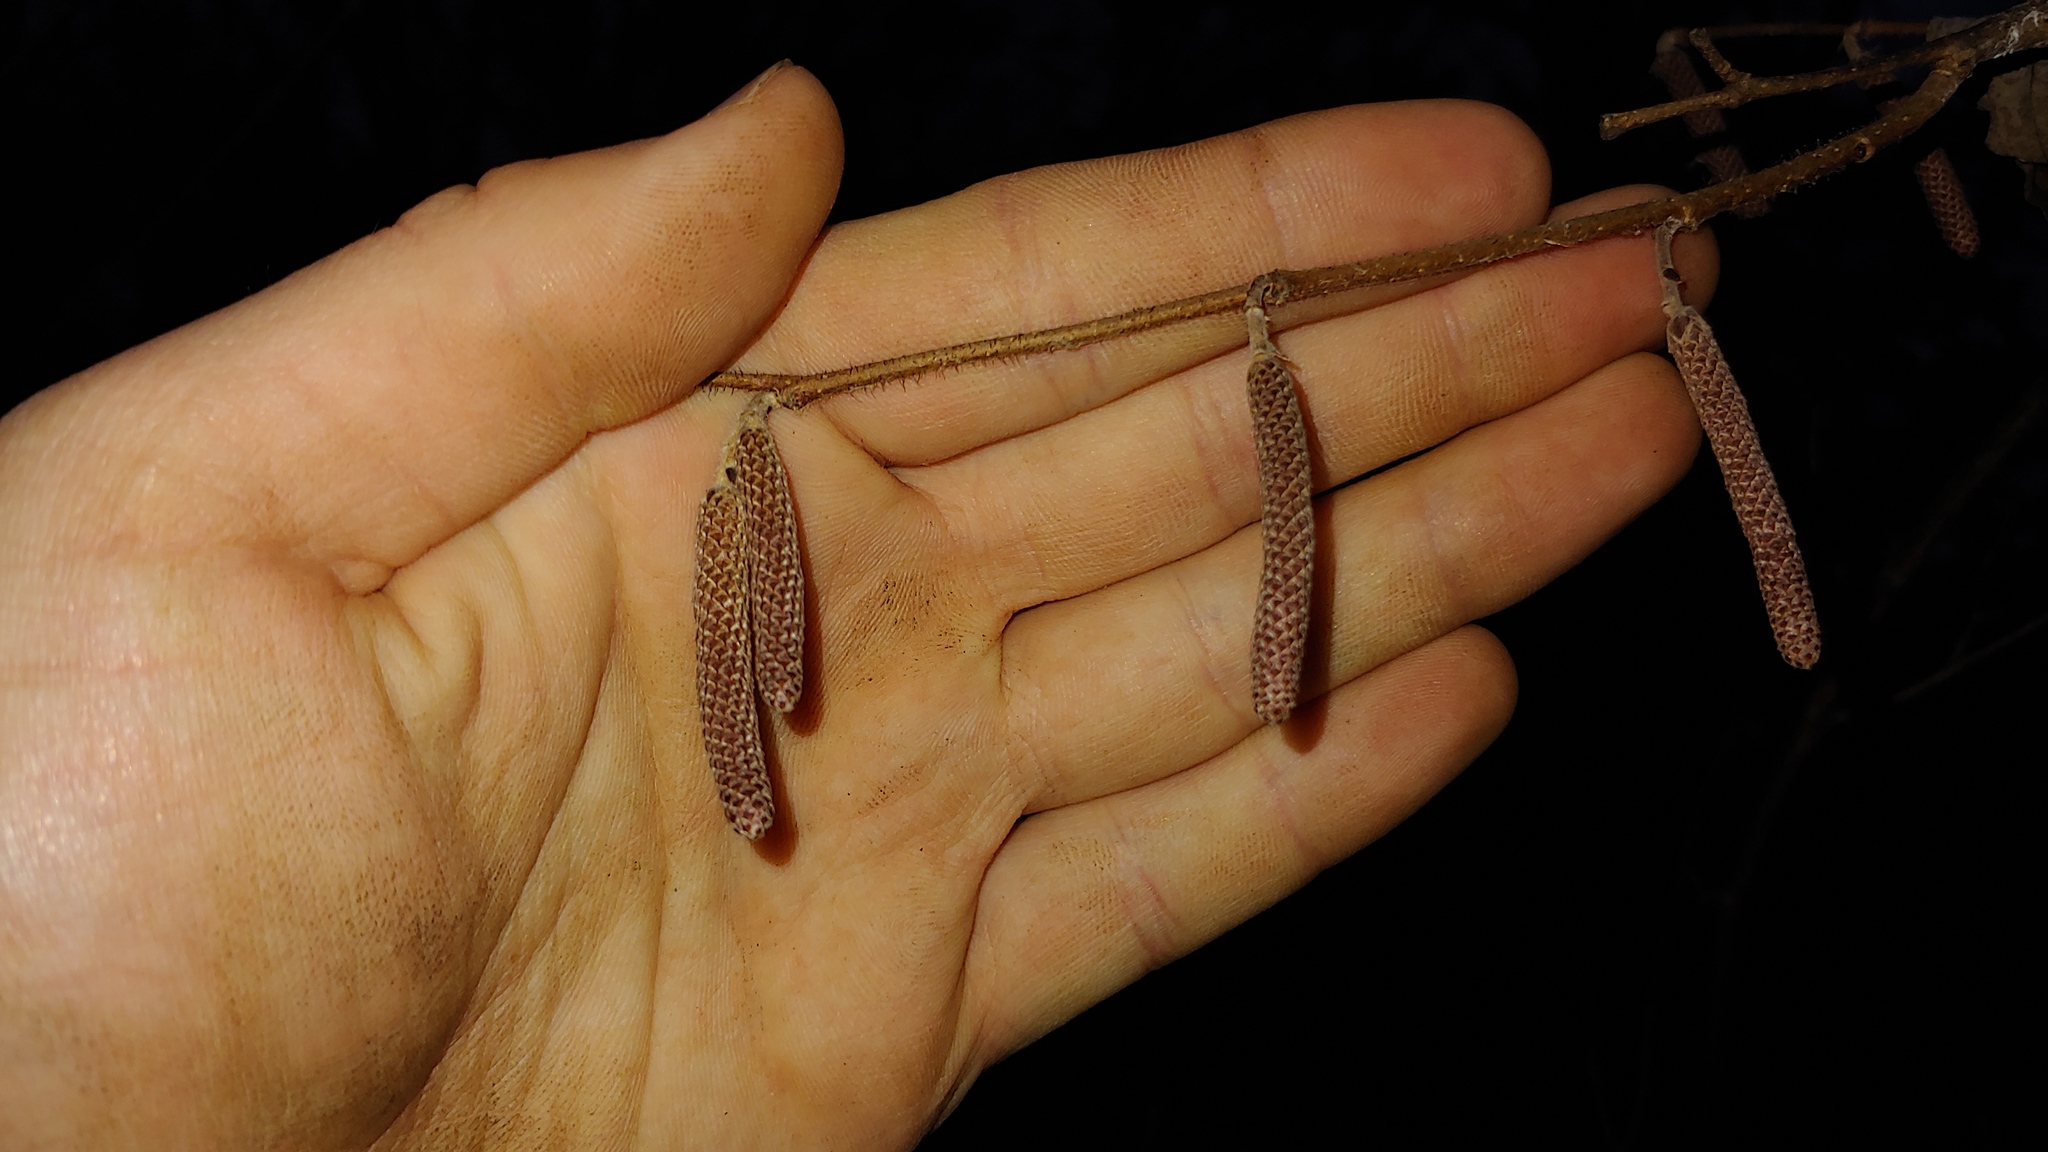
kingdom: Plantae
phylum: Tracheophyta
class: Magnoliopsida
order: Fagales
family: Betulaceae
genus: Corylus
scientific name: Corylus americana
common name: American hazel
